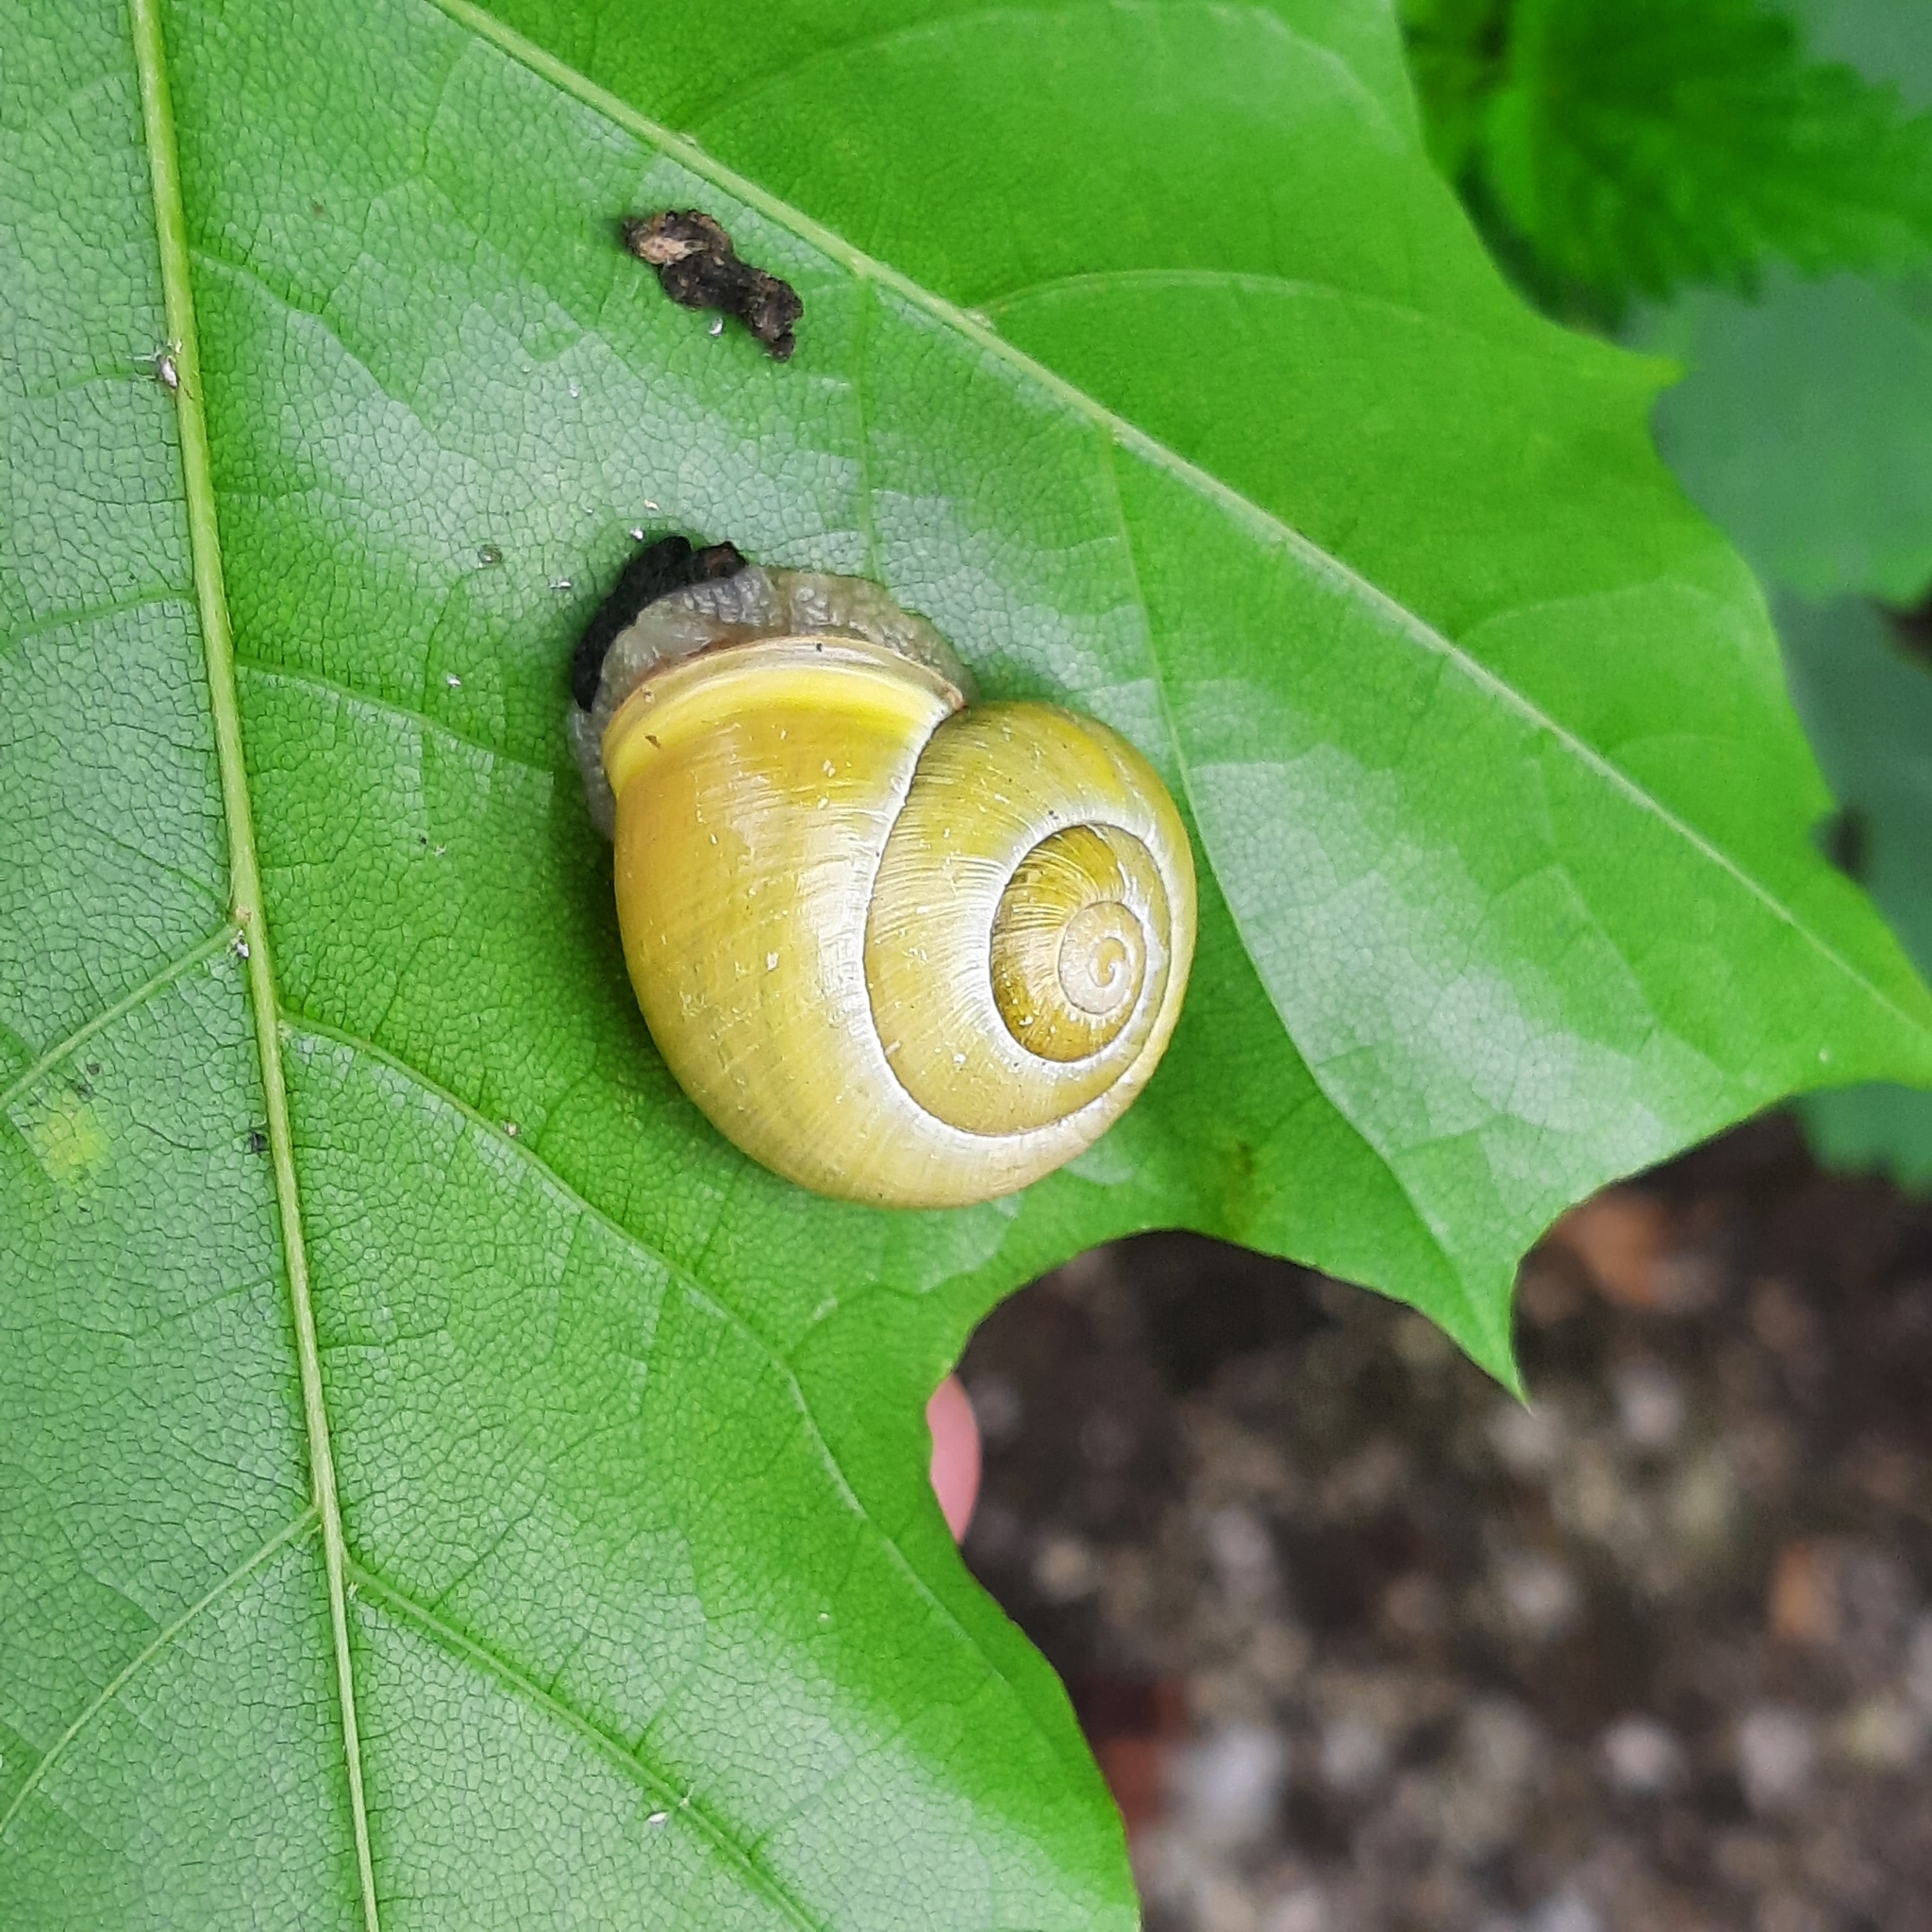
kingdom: Animalia
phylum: Mollusca
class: Gastropoda
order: Stylommatophora
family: Helicidae
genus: Cepaea
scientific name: Cepaea hortensis
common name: White-lip gardensnail
